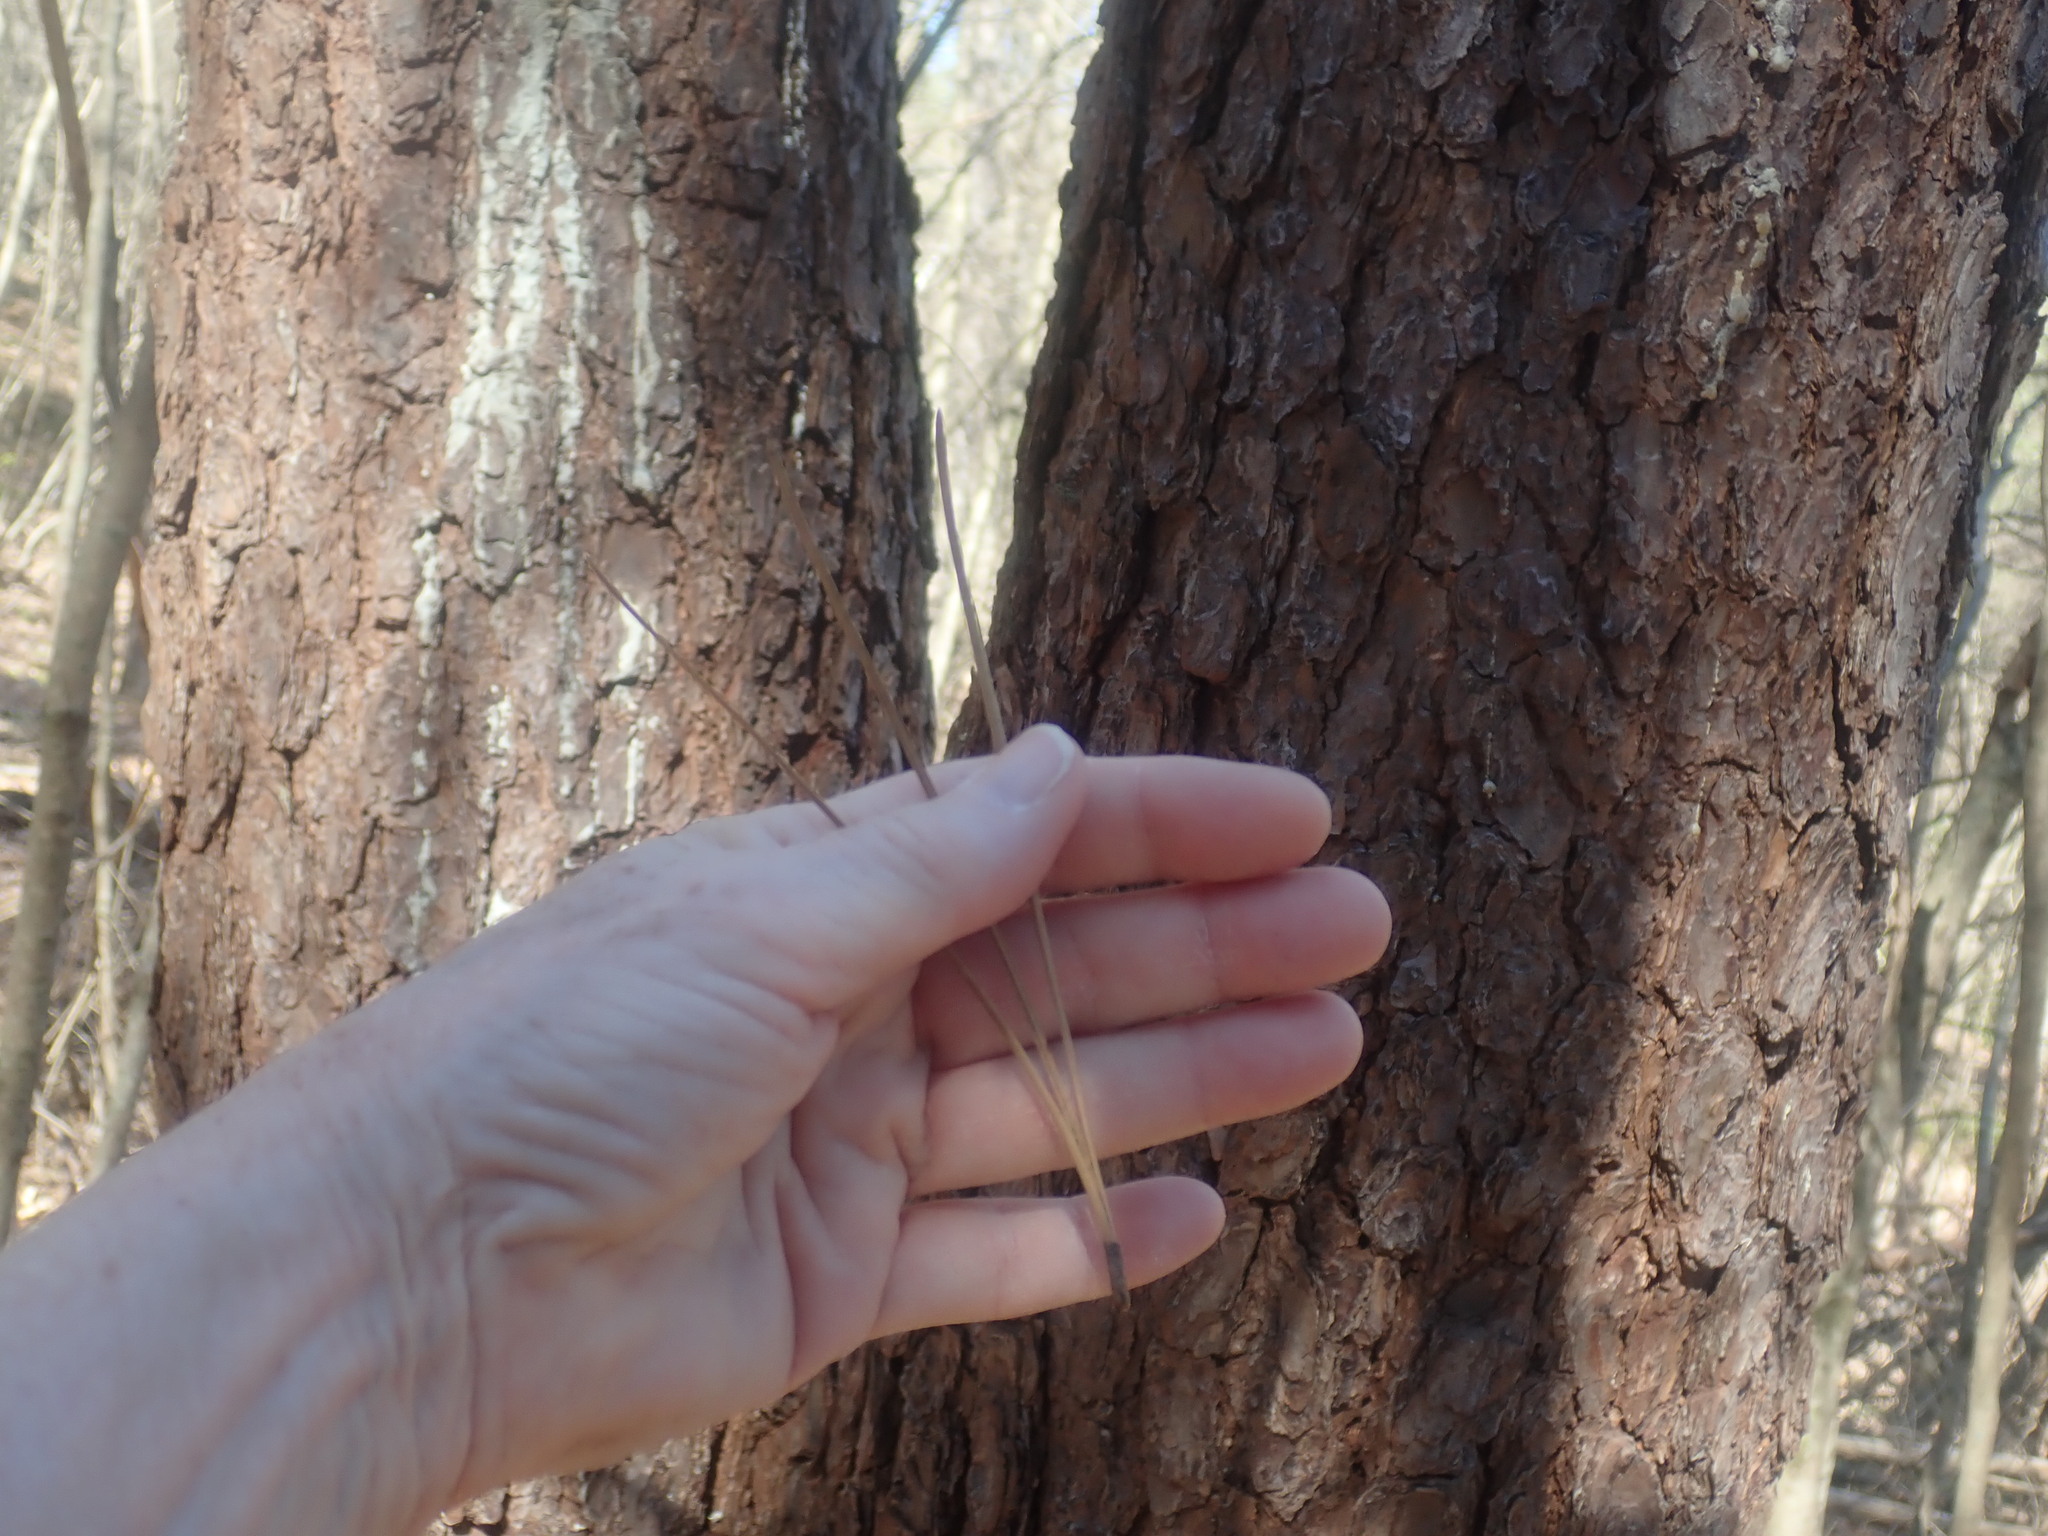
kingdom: Plantae
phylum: Tracheophyta
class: Pinopsida
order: Pinales
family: Pinaceae
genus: Pinus
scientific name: Pinus rigida
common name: Pitch pine
